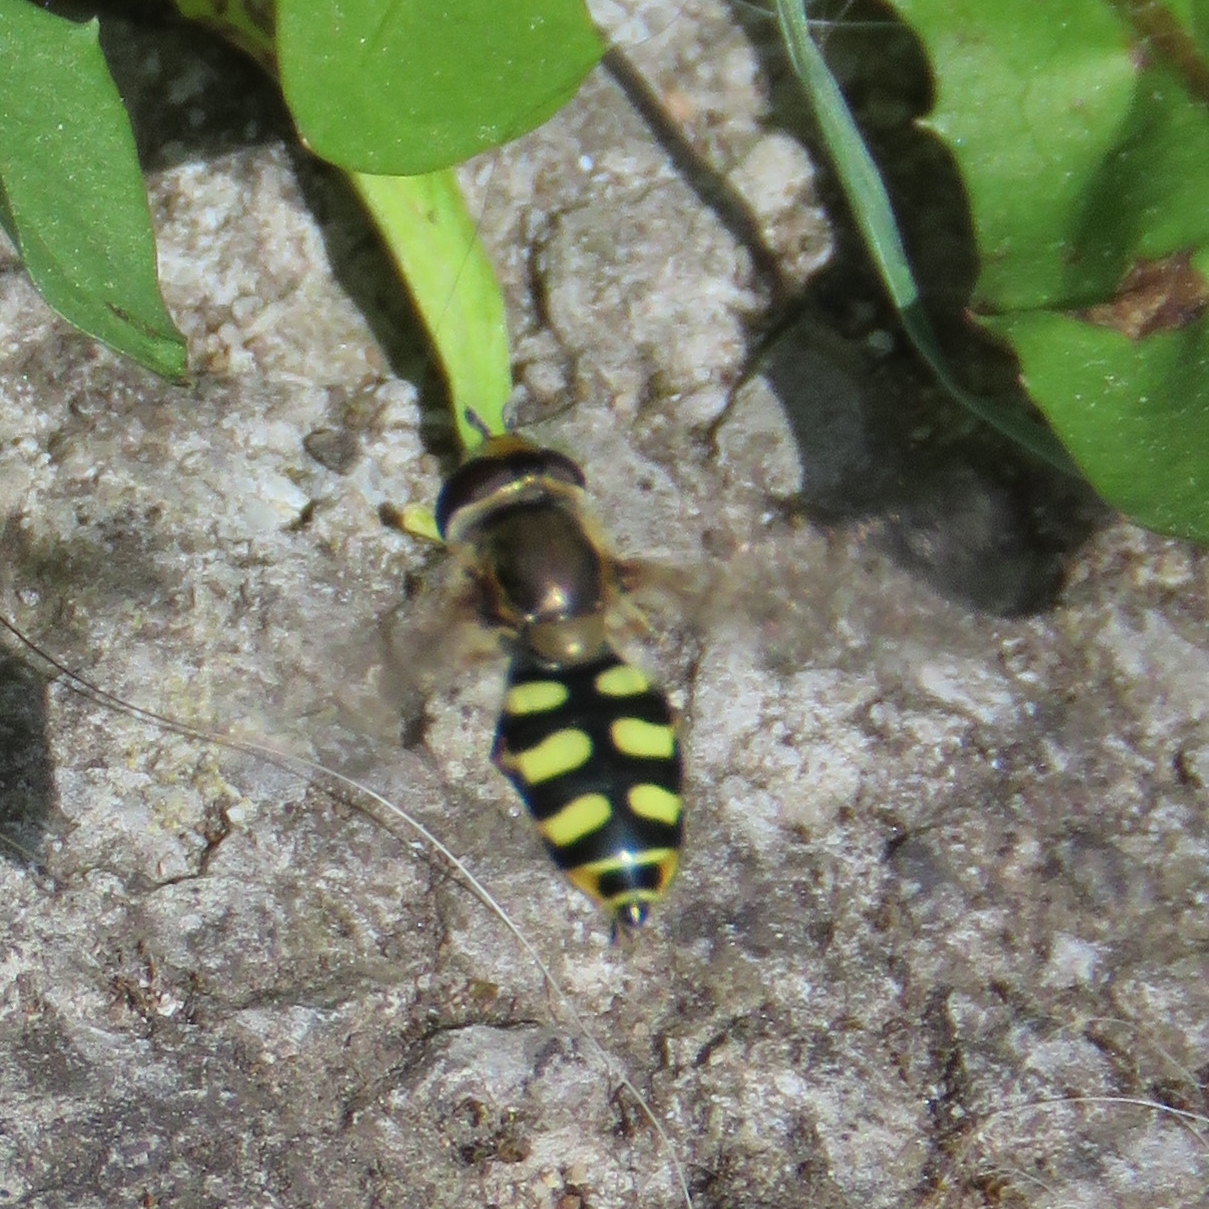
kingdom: Animalia
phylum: Arthropoda
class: Insecta
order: Diptera
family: Syrphidae
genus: Eupeodes
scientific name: Eupeodes corollae
